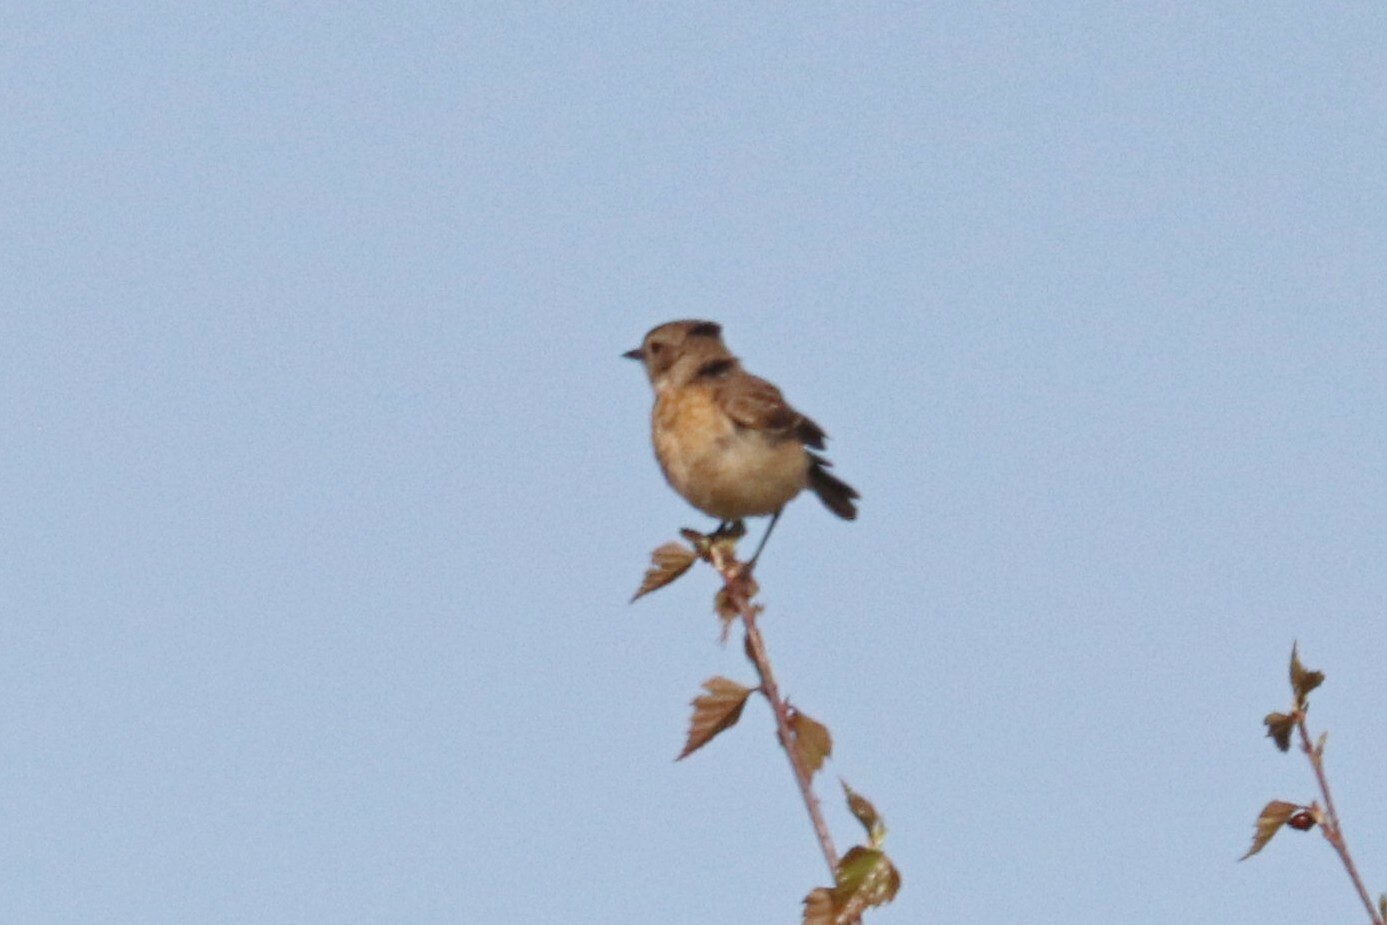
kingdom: Animalia
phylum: Chordata
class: Aves
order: Passeriformes
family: Muscicapidae
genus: Saxicola
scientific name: Saxicola maurus
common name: Siberian stonechat
